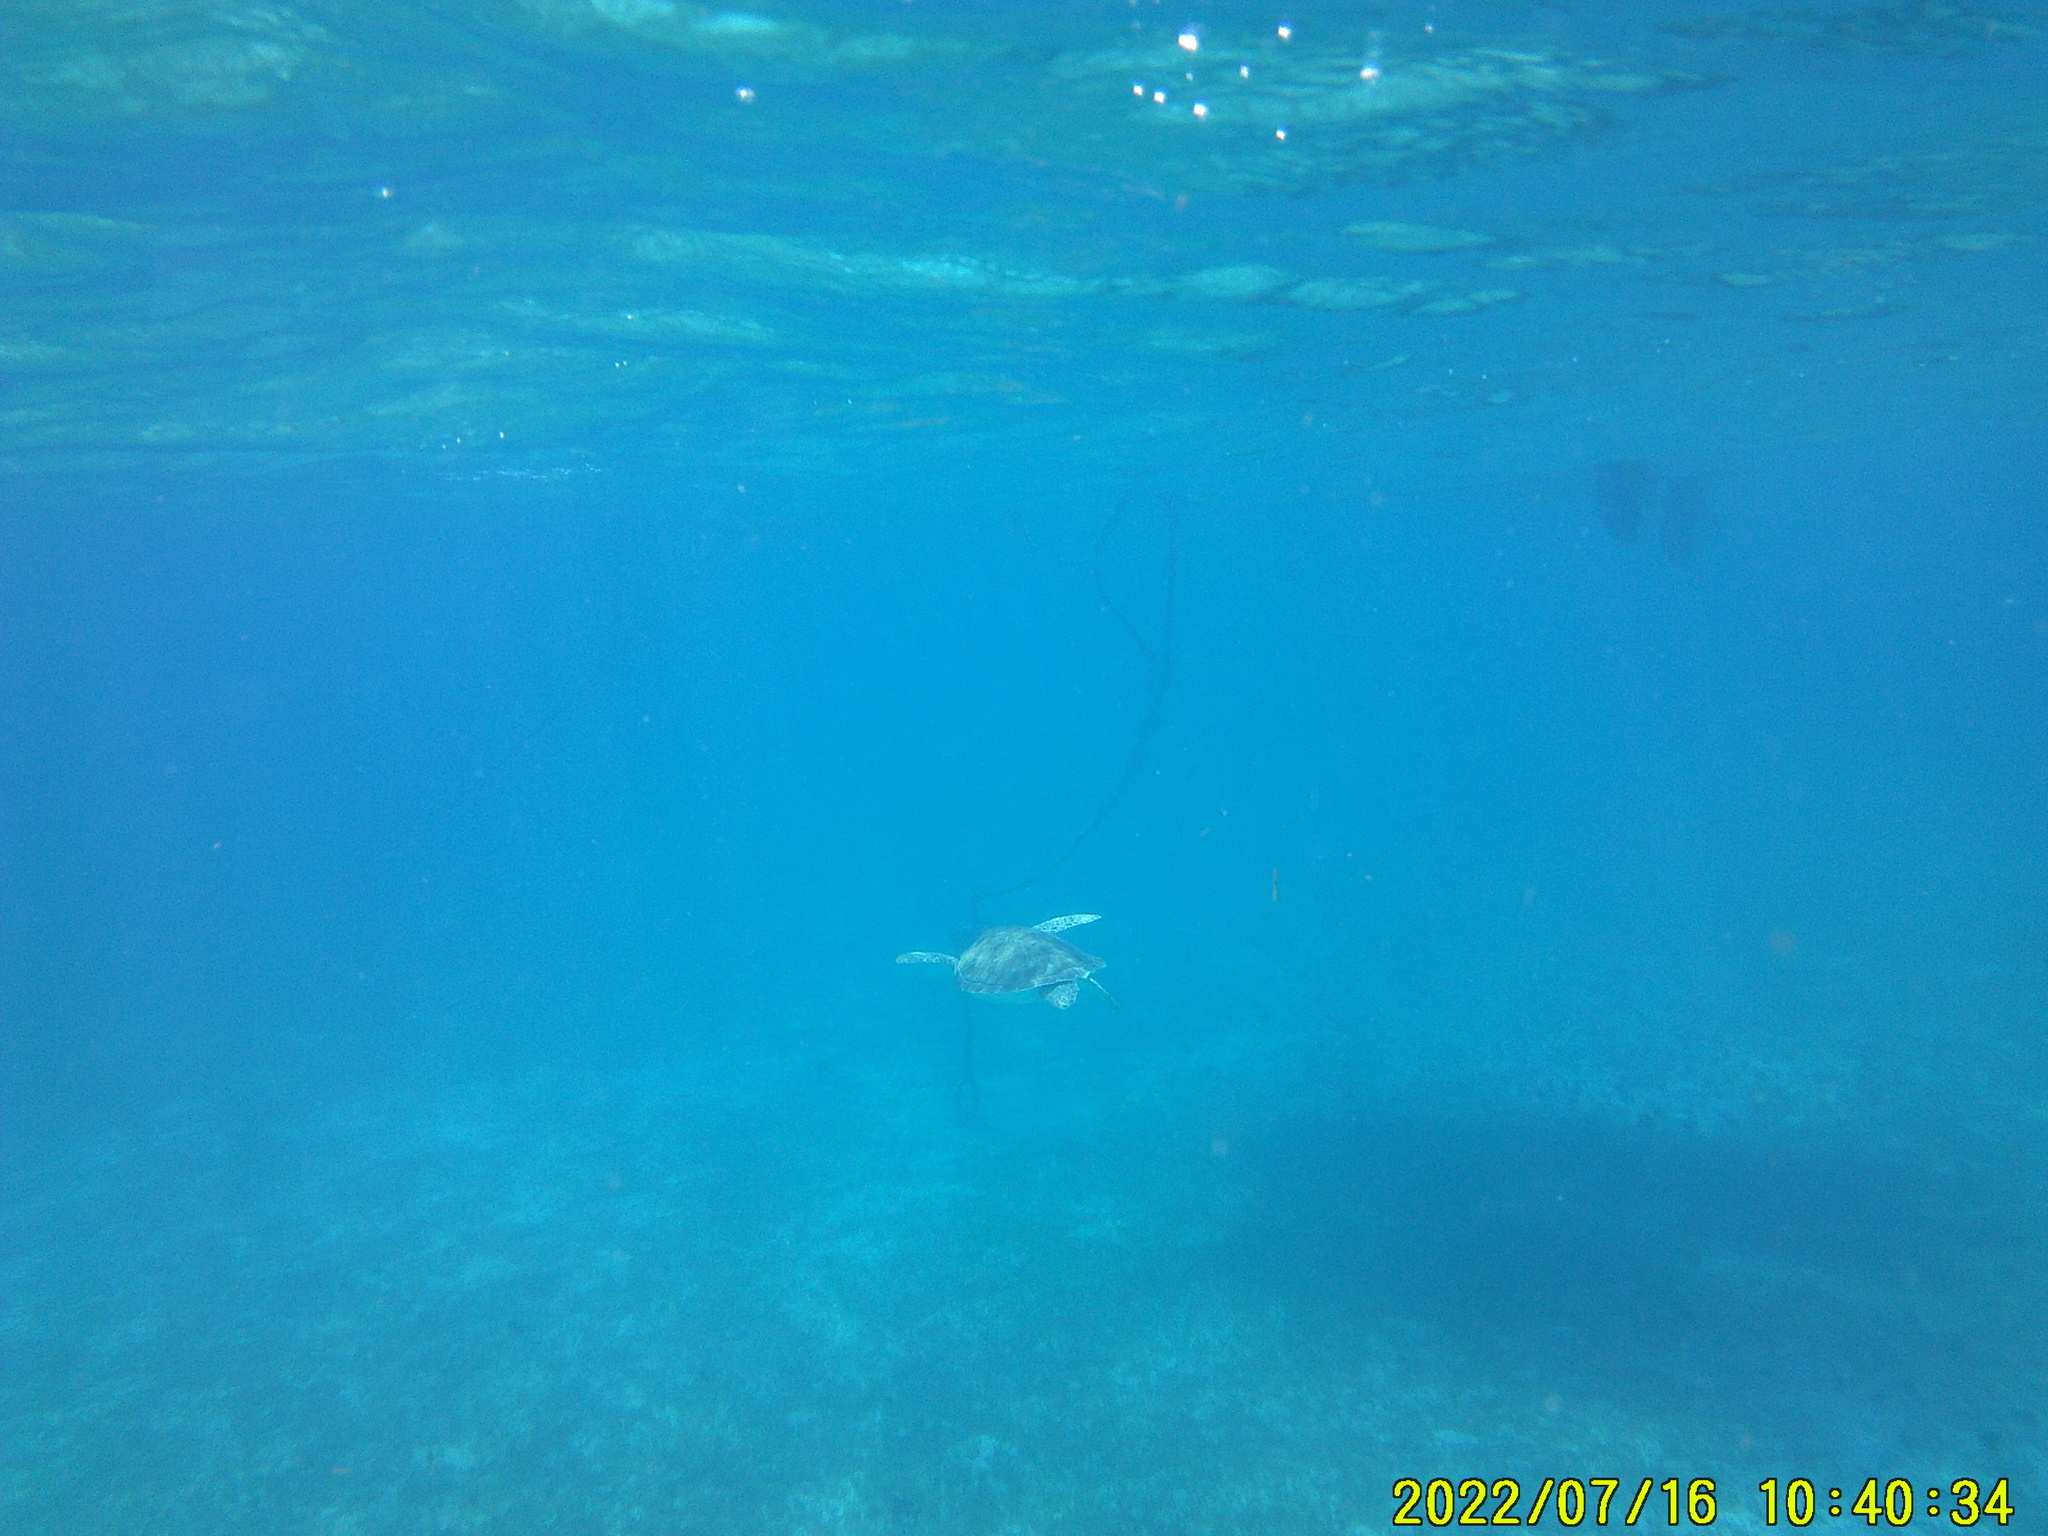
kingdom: Animalia
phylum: Chordata
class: Testudines
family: Cheloniidae
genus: Chelonia
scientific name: Chelonia mydas
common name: Green turtle
